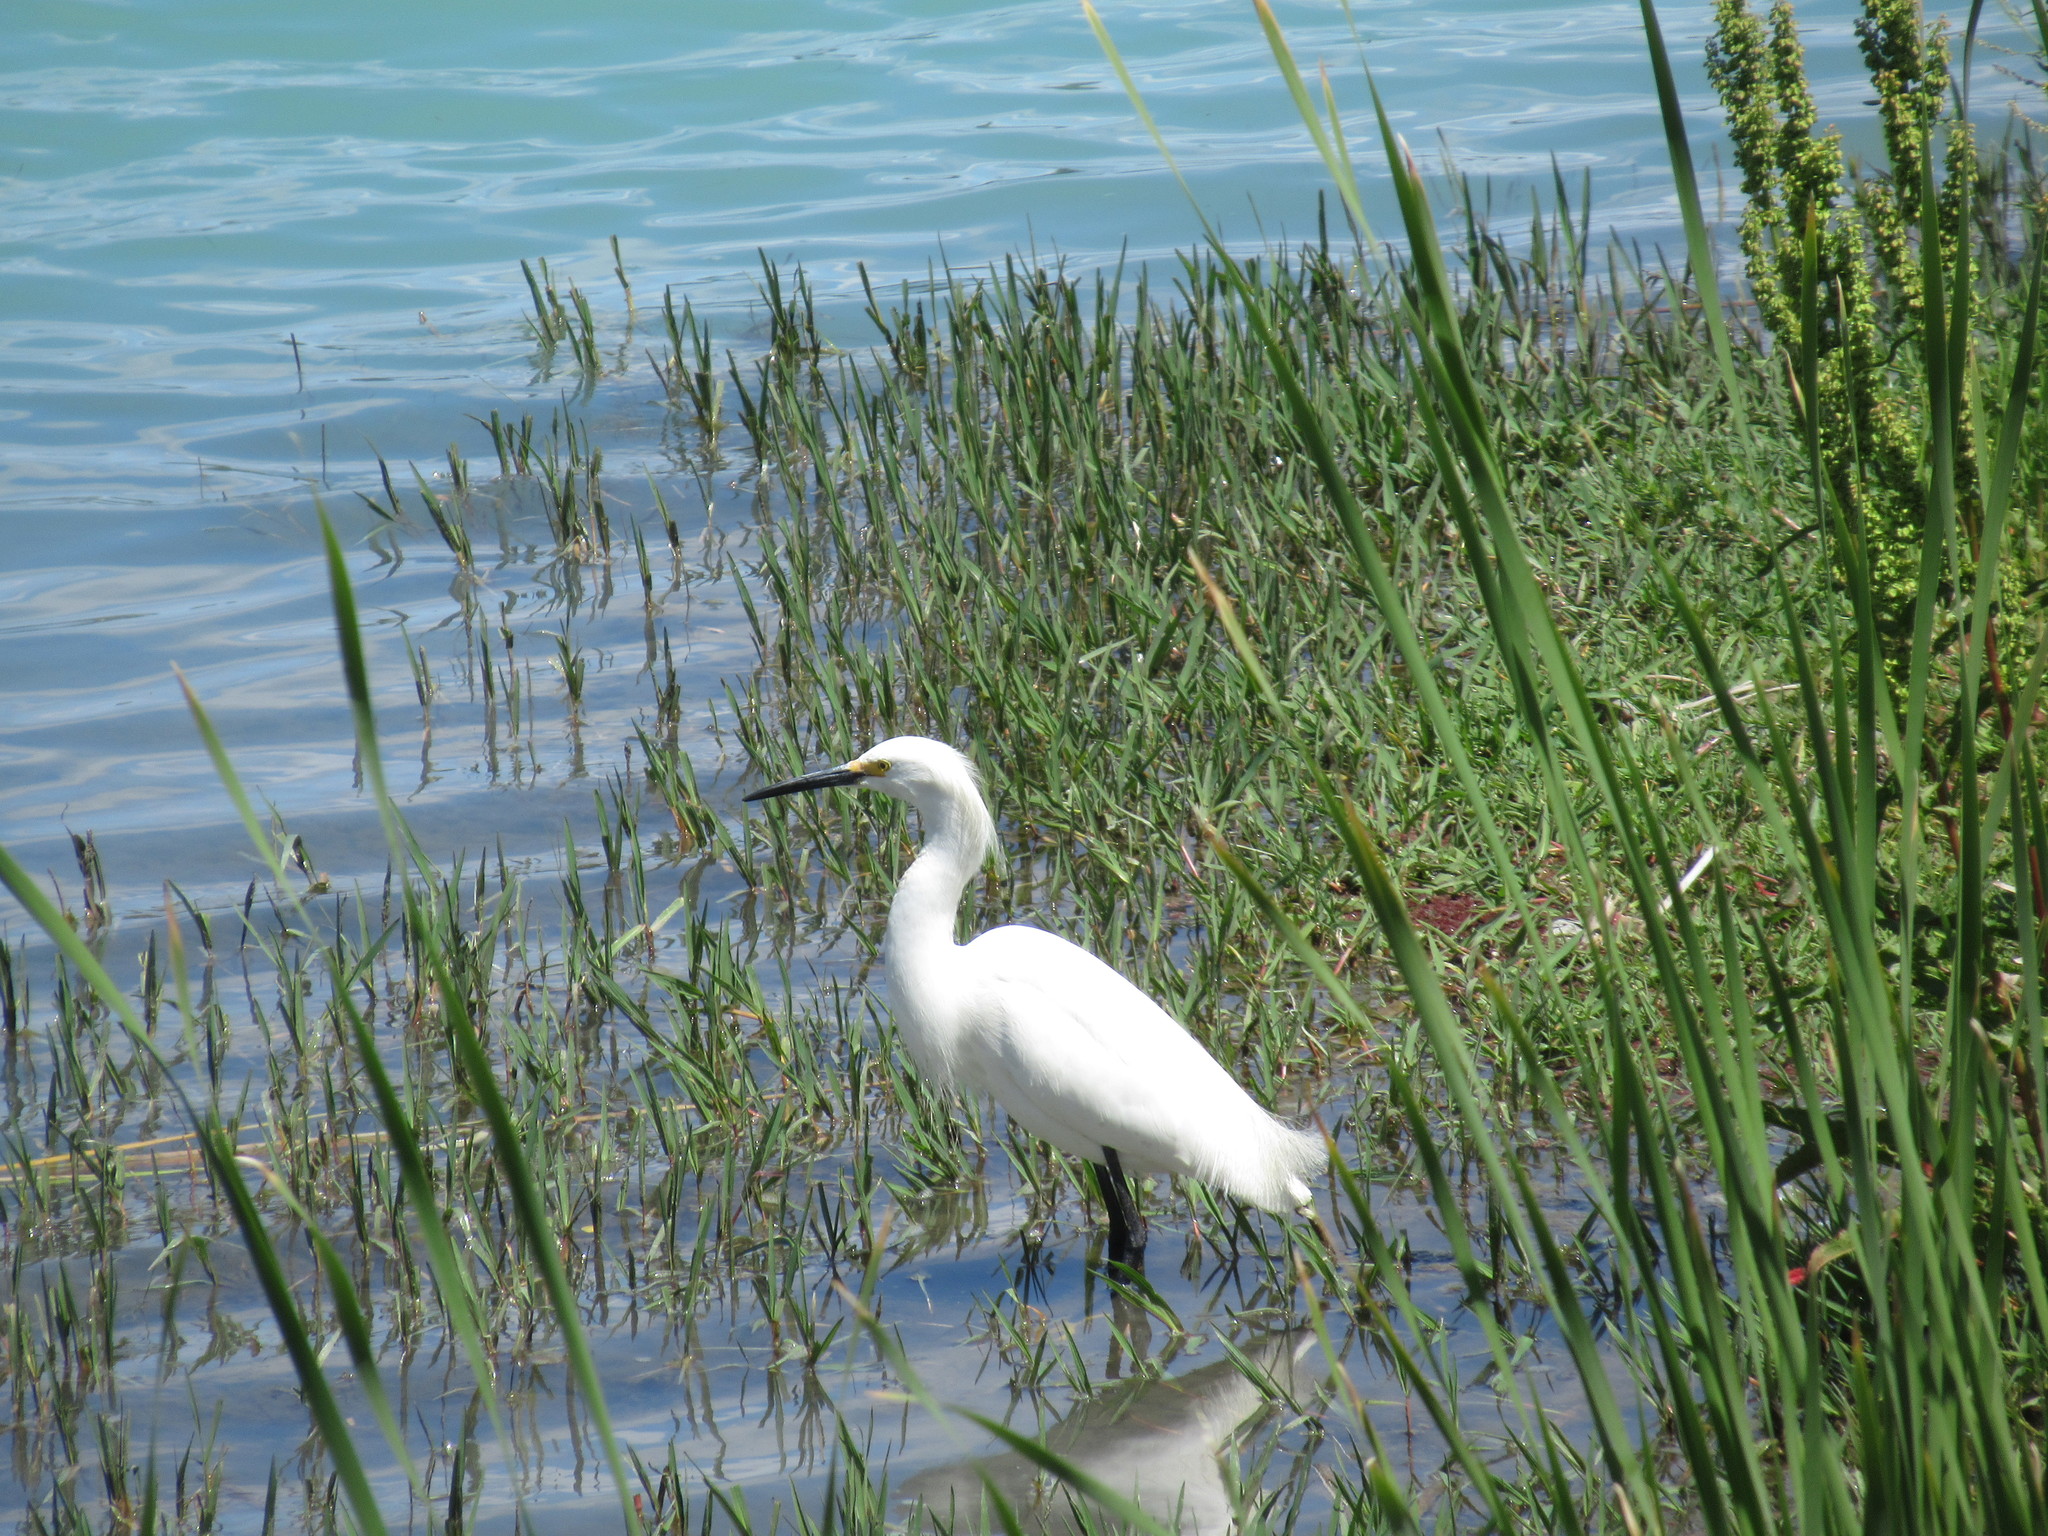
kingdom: Animalia
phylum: Chordata
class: Aves
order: Pelecaniformes
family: Ardeidae
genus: Egretta
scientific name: Egretta thula
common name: Snowy egret
